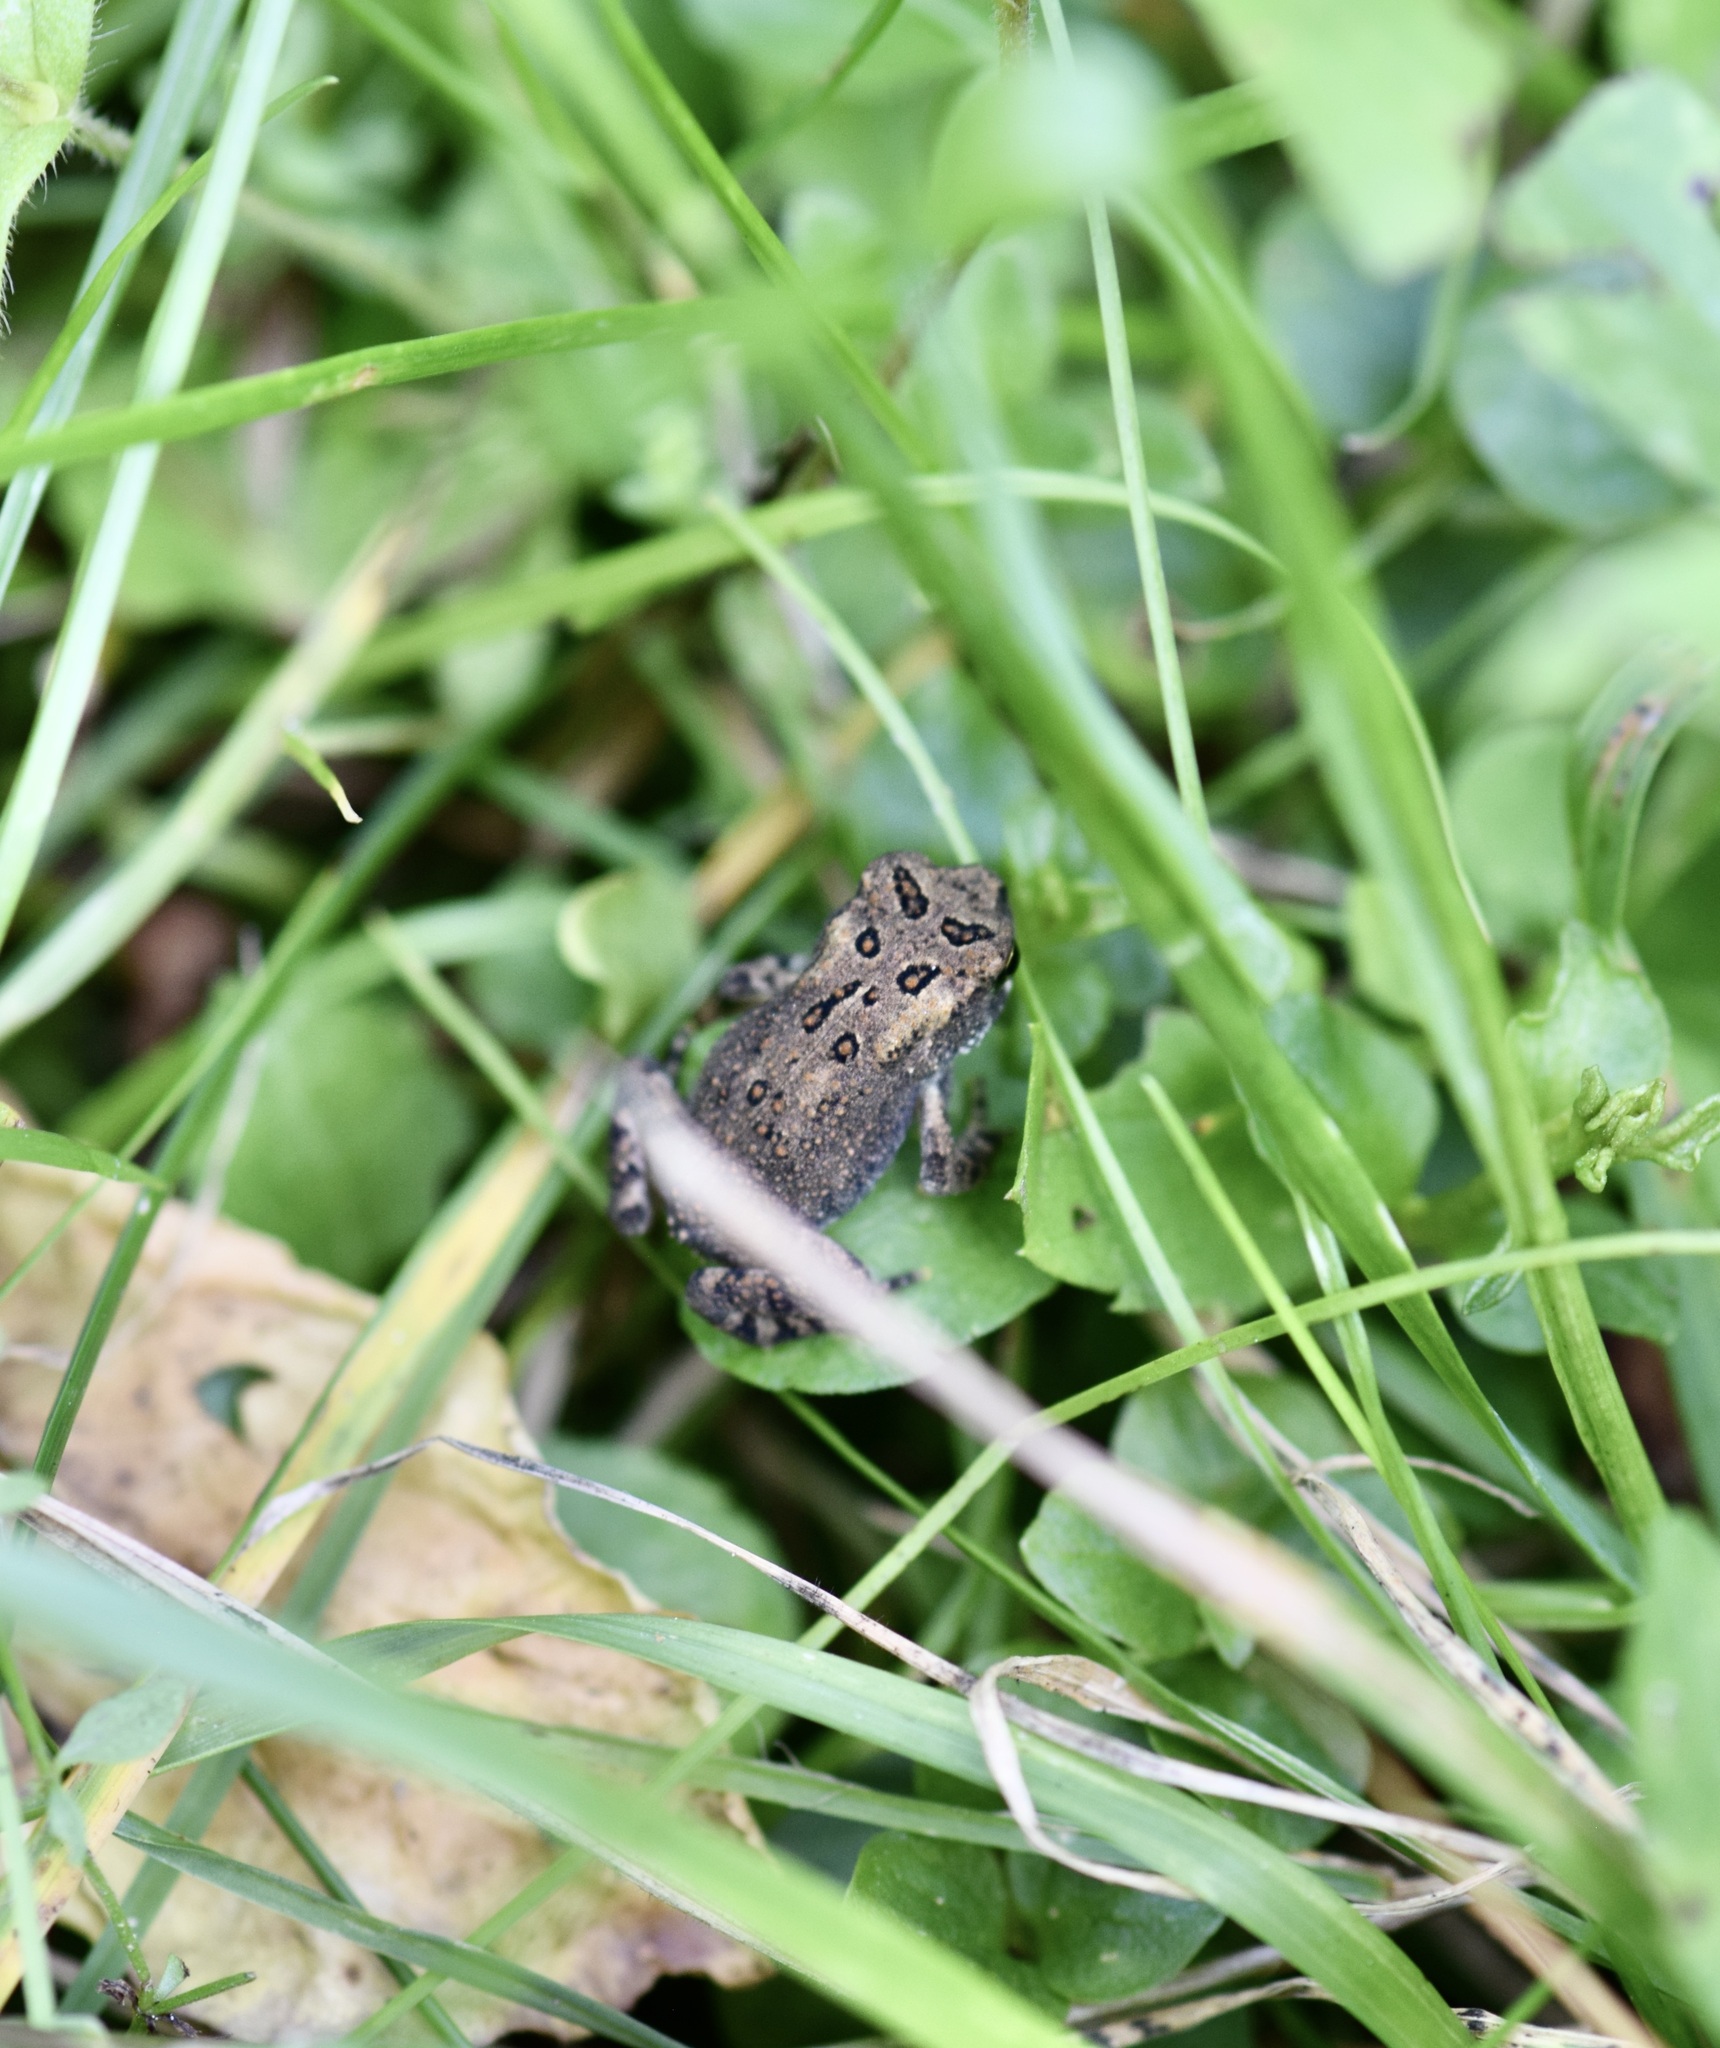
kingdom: Animalia
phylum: Chordata
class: Amphibia
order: Anura
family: Bufonidae
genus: Anaxyrus
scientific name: Anaxyrus americanus
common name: American toad
